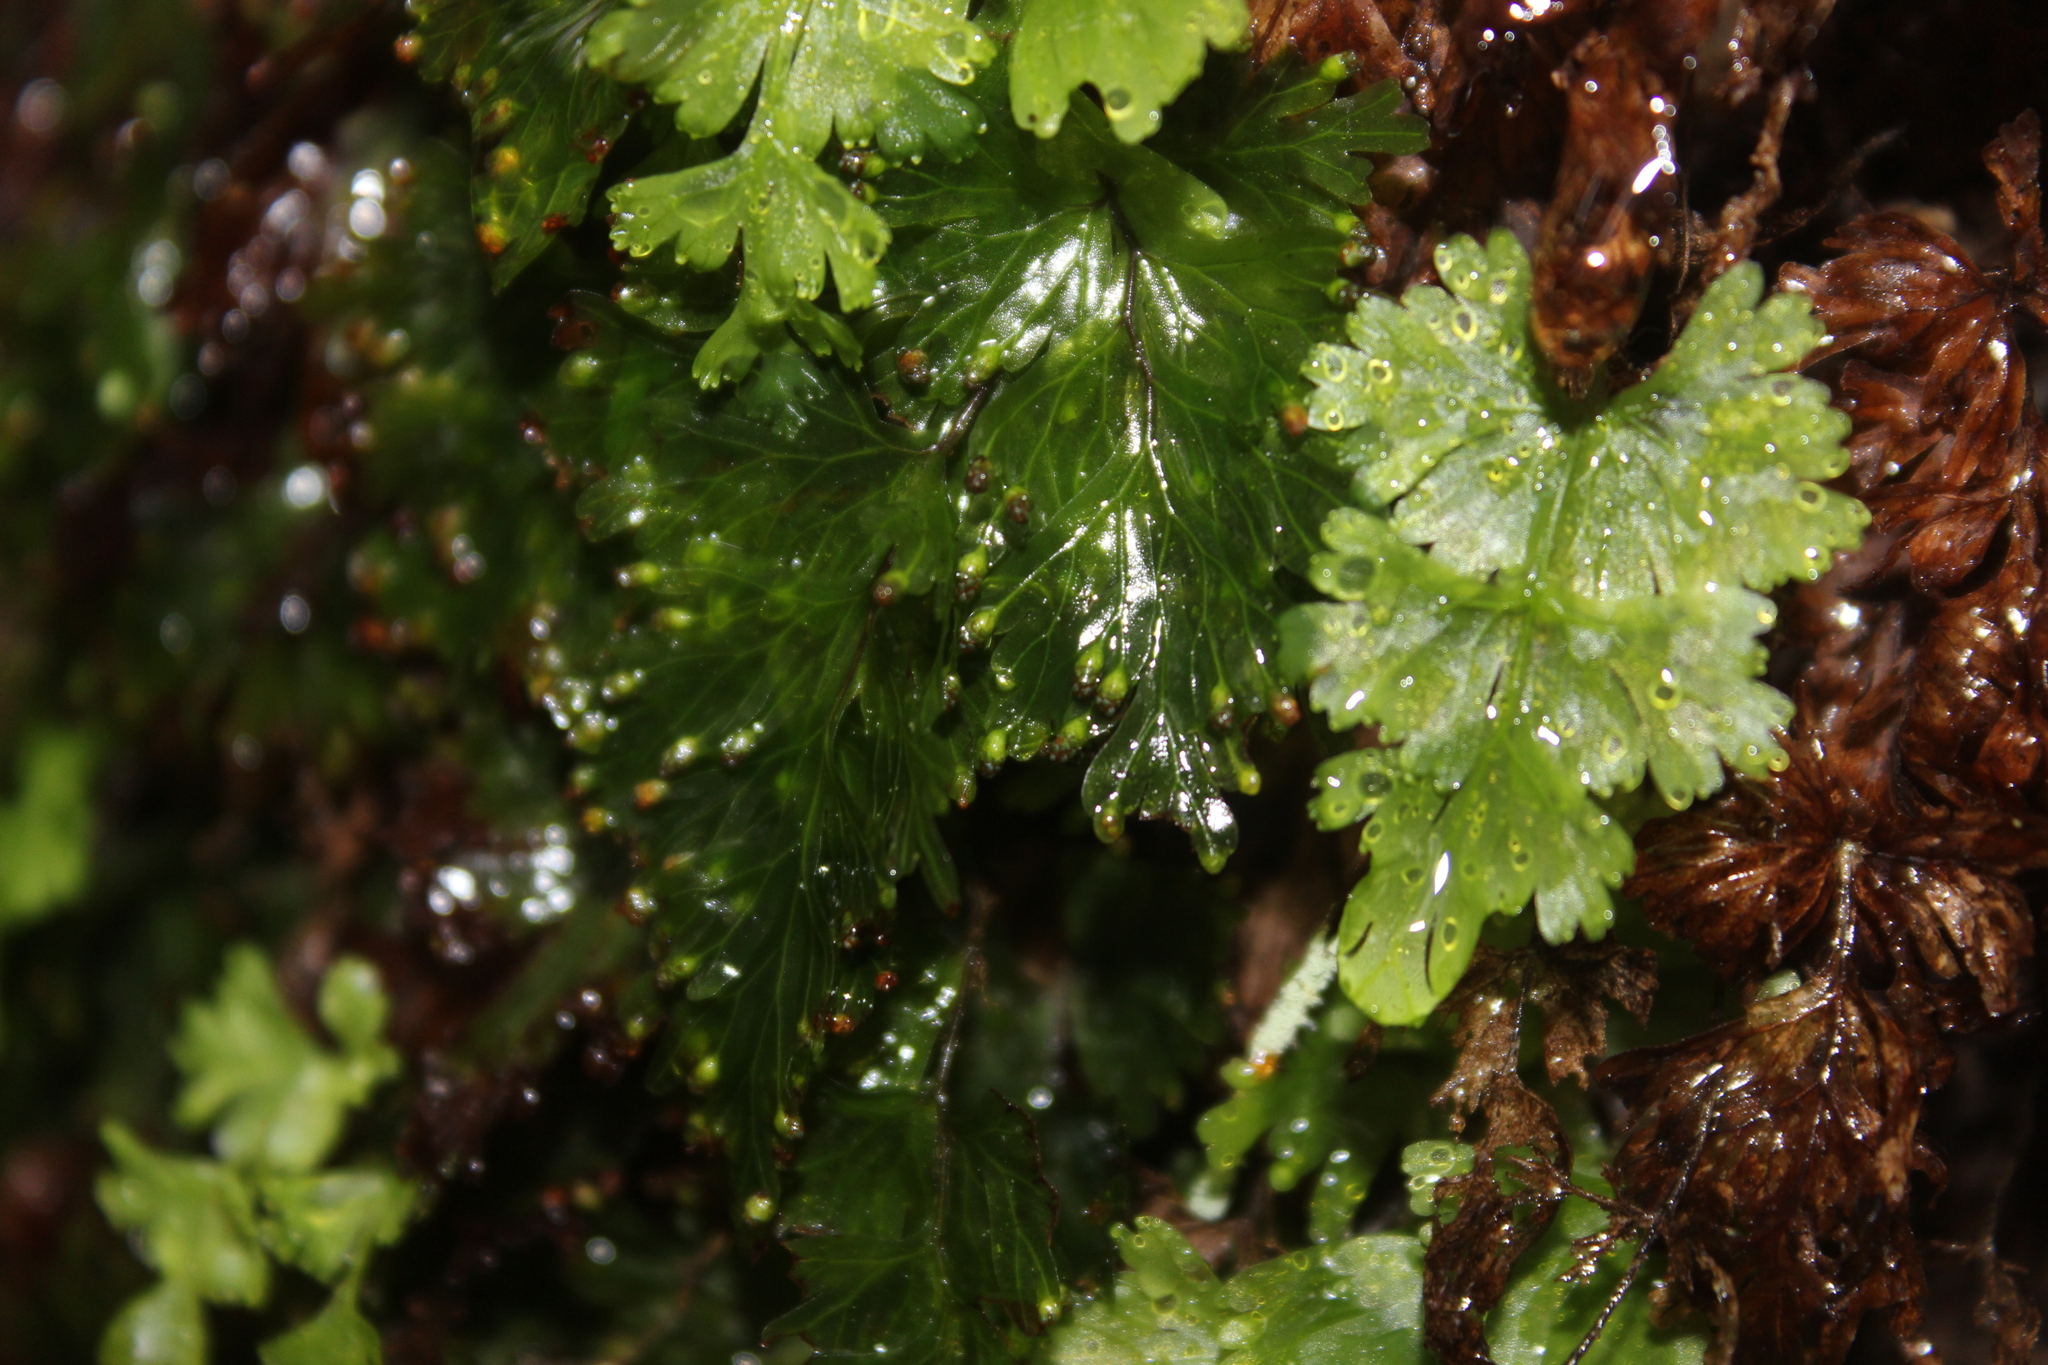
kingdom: Plantae
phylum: Tracheophyta
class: Polypodiopsida
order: Hymenophyllales
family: Hymenophyllaceae
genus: Hymenophyllum
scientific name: Hymenophyllum flabellatum
